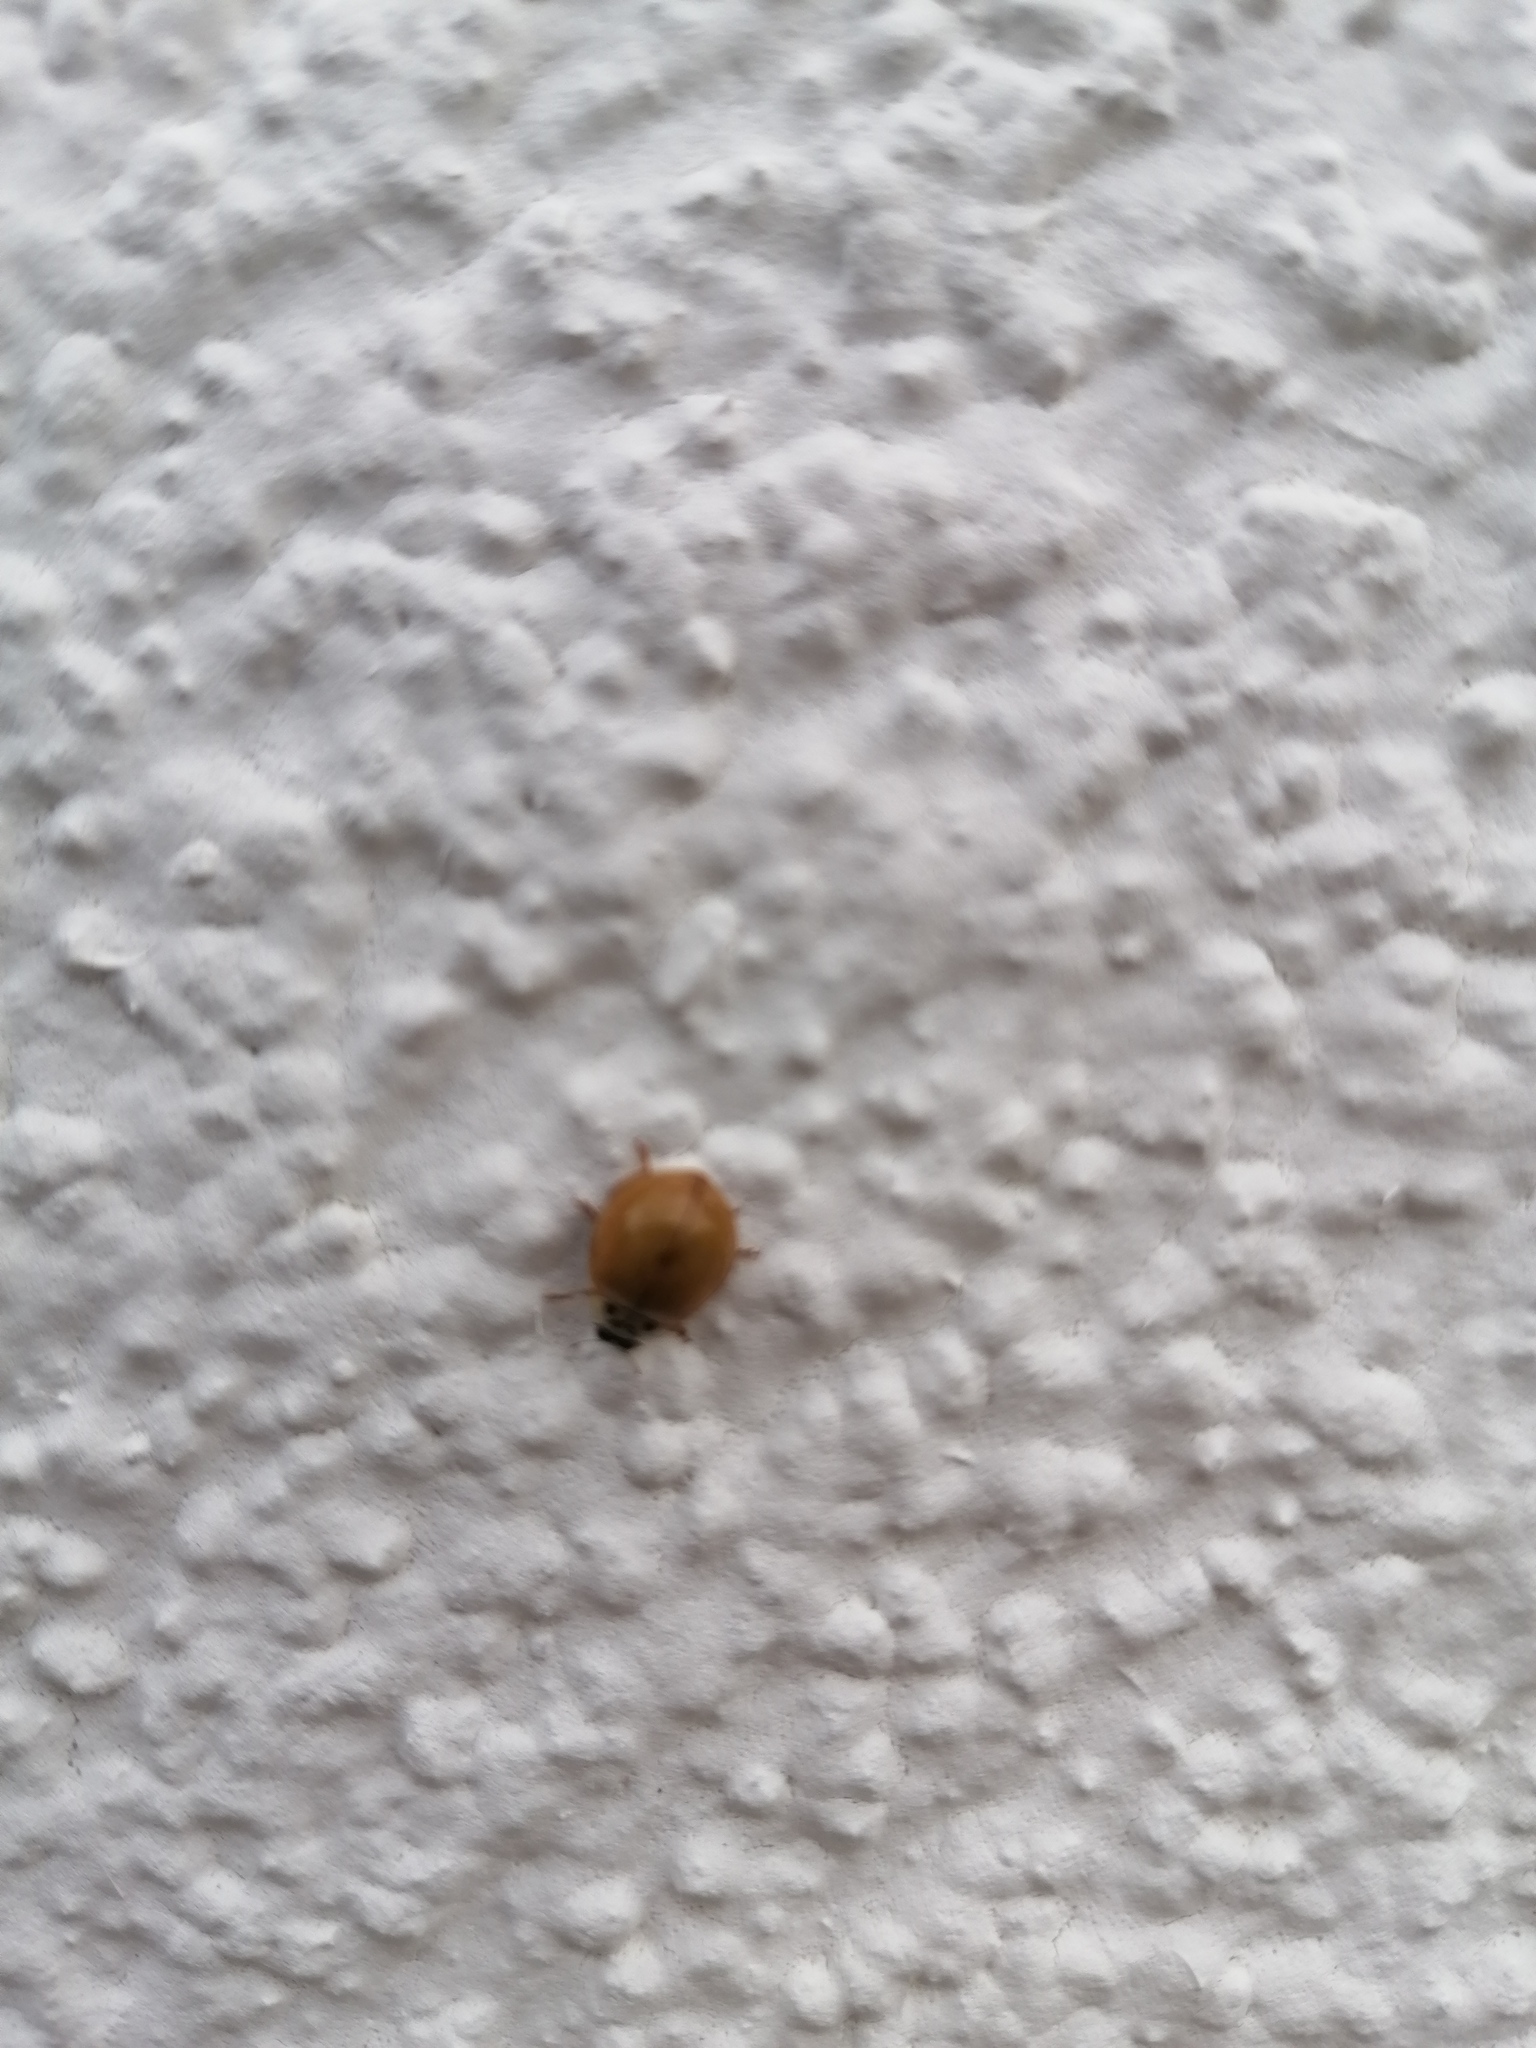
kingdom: Animalia
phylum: Arthropoda
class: Insecta
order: Coleoptera
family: Coccinellidae
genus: Harmonia
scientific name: Harmonia axyridis
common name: Harlequin ladybird
